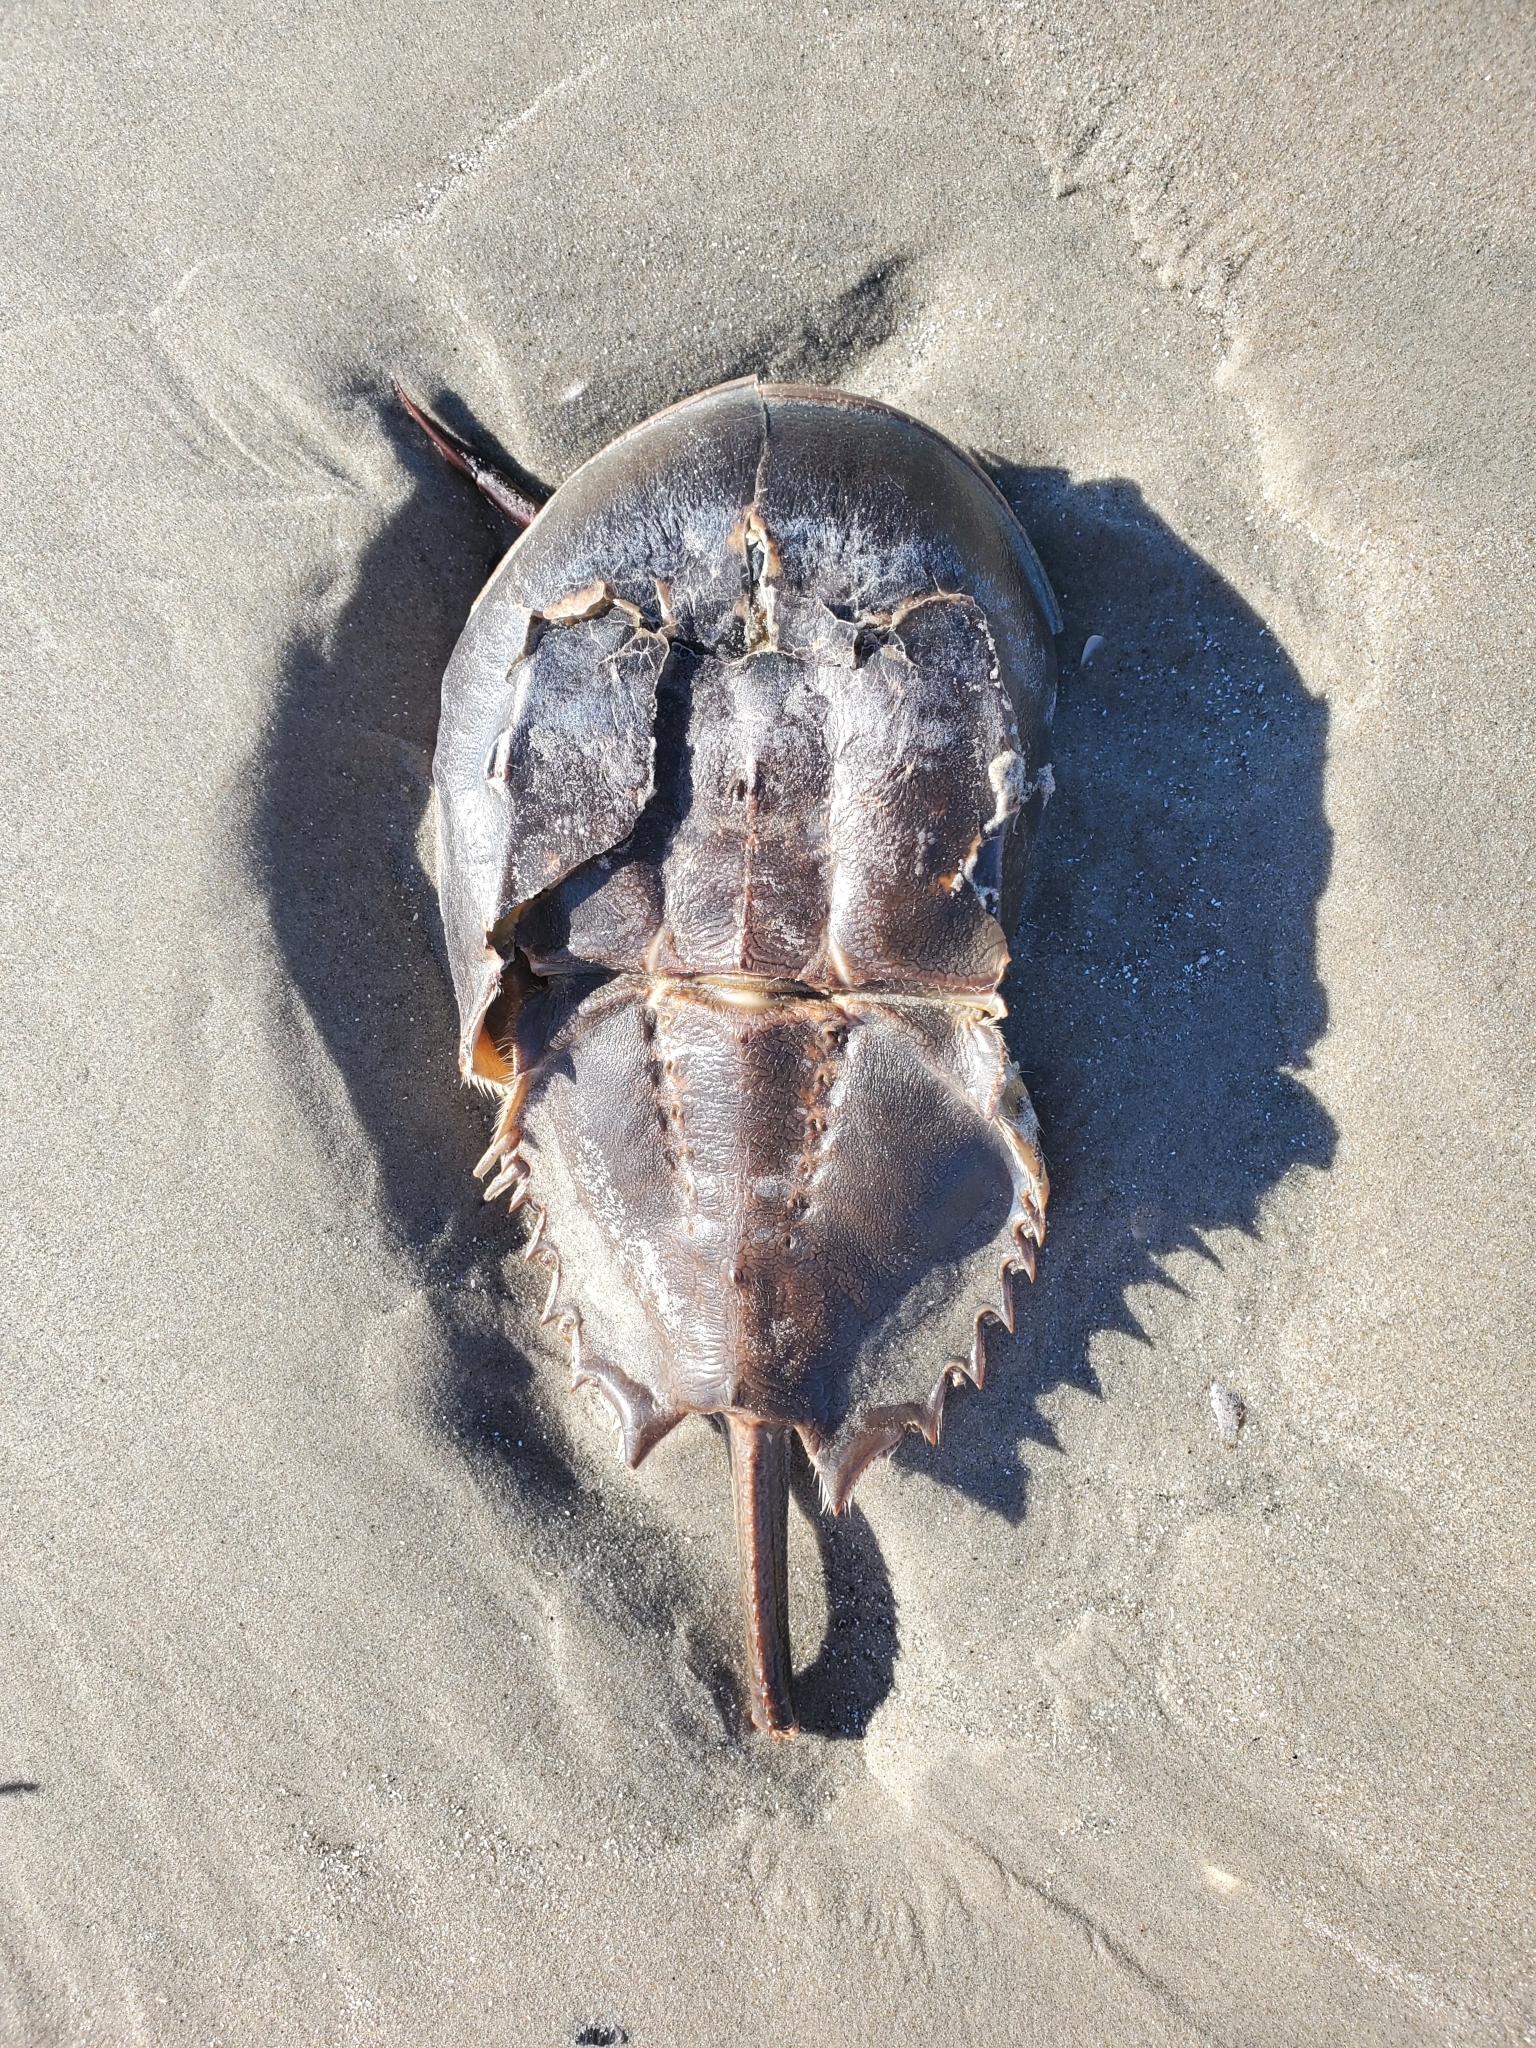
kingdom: Animalia
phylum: Arthropoda
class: Merostomata
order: Xiphosurida
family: Limulidae
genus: Limulus
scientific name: Limulus polyphemus
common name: Horseshoe crab
